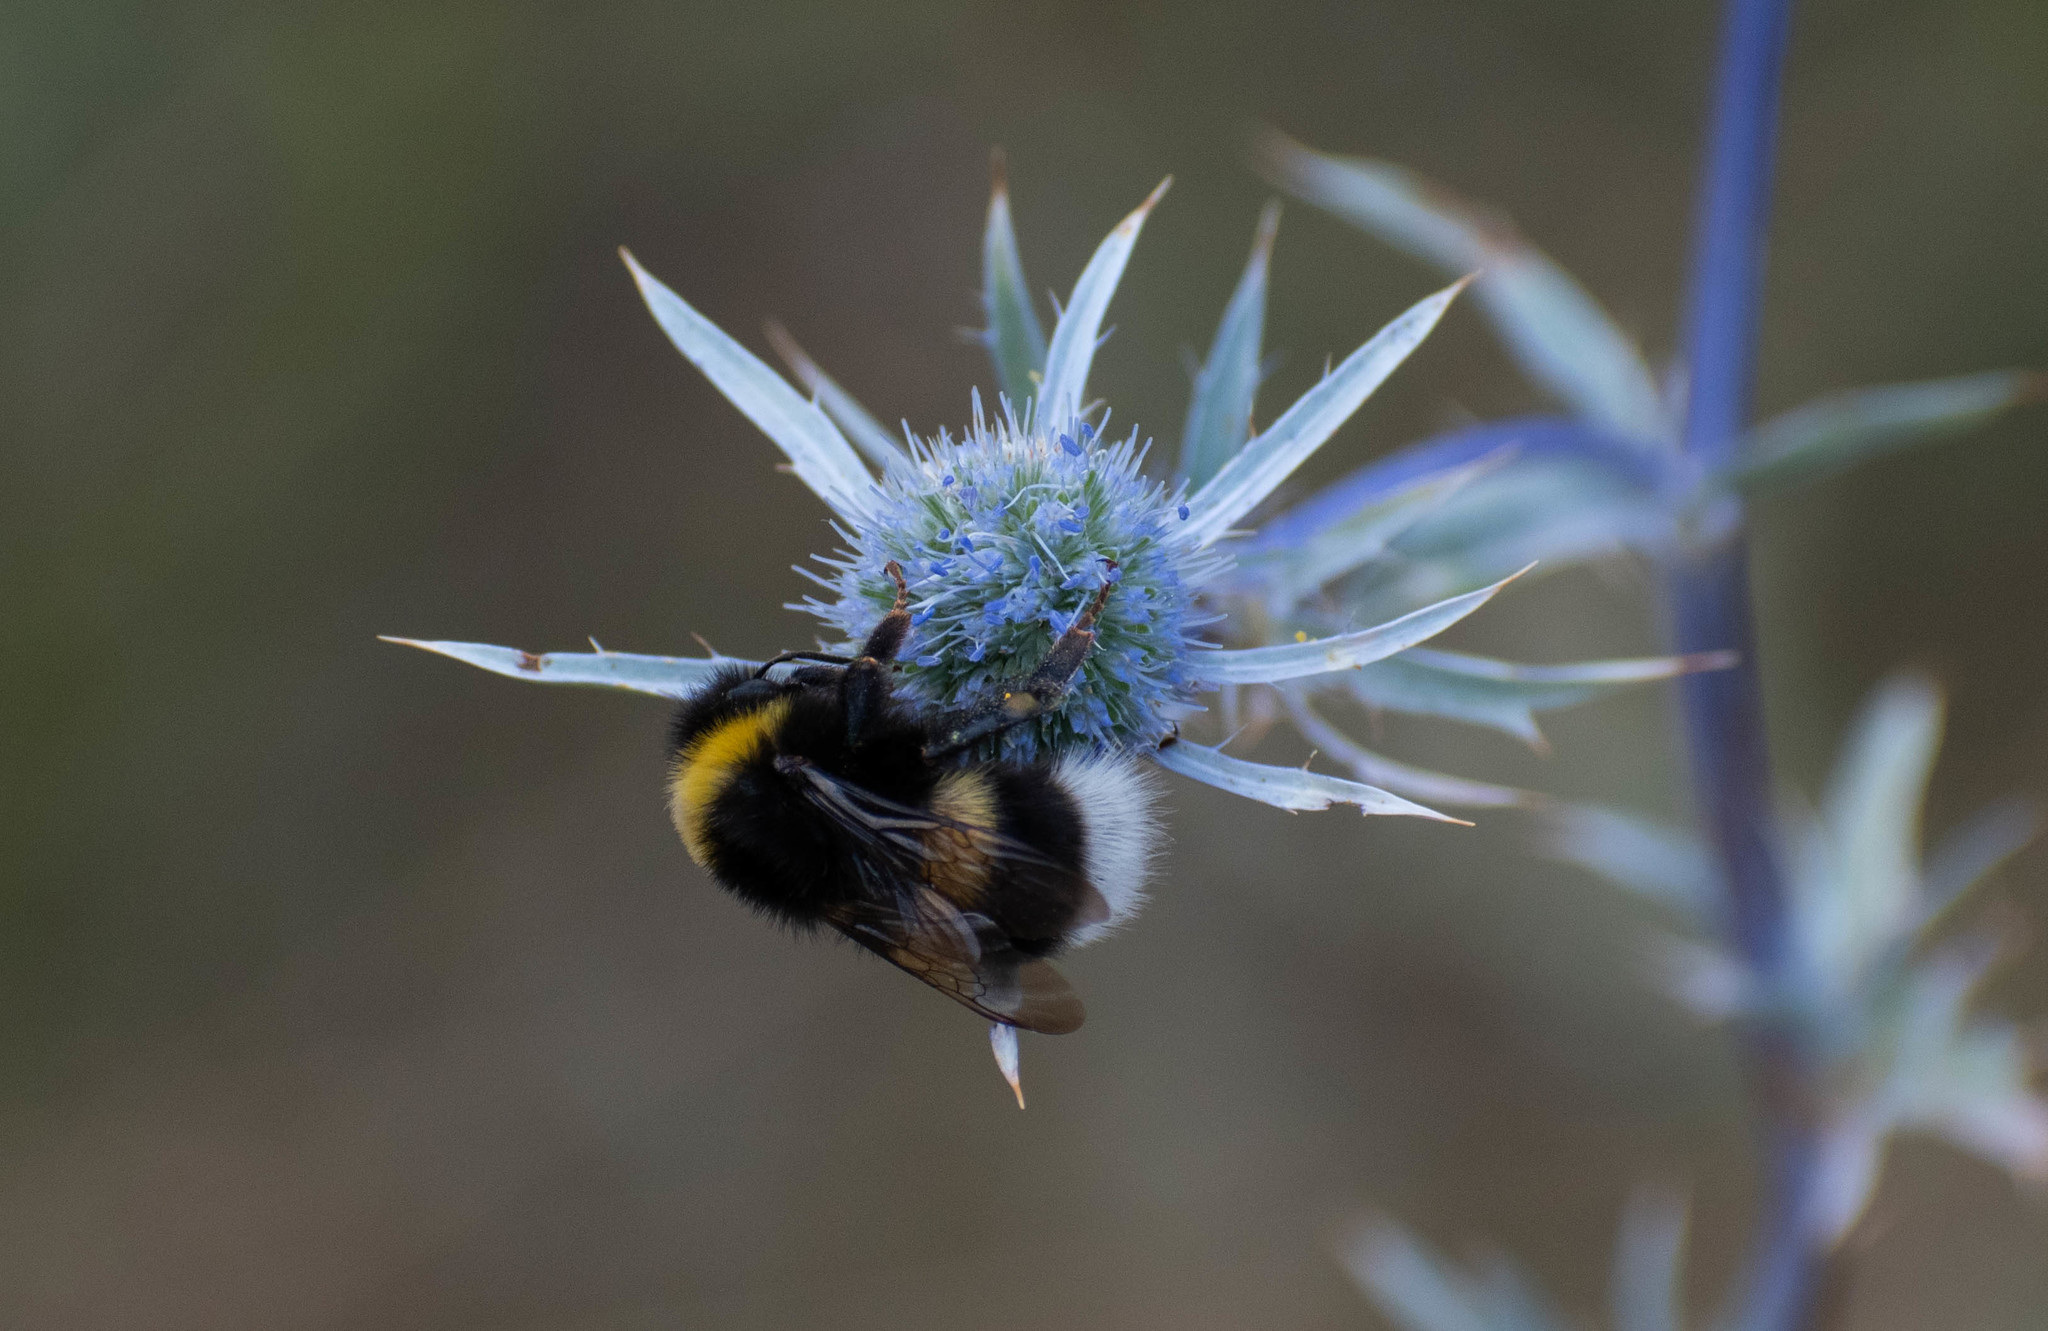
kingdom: Animalia
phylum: Arthropoda
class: Insecta
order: Hymenoptera
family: Apidae
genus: Bombus
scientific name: Bombus
